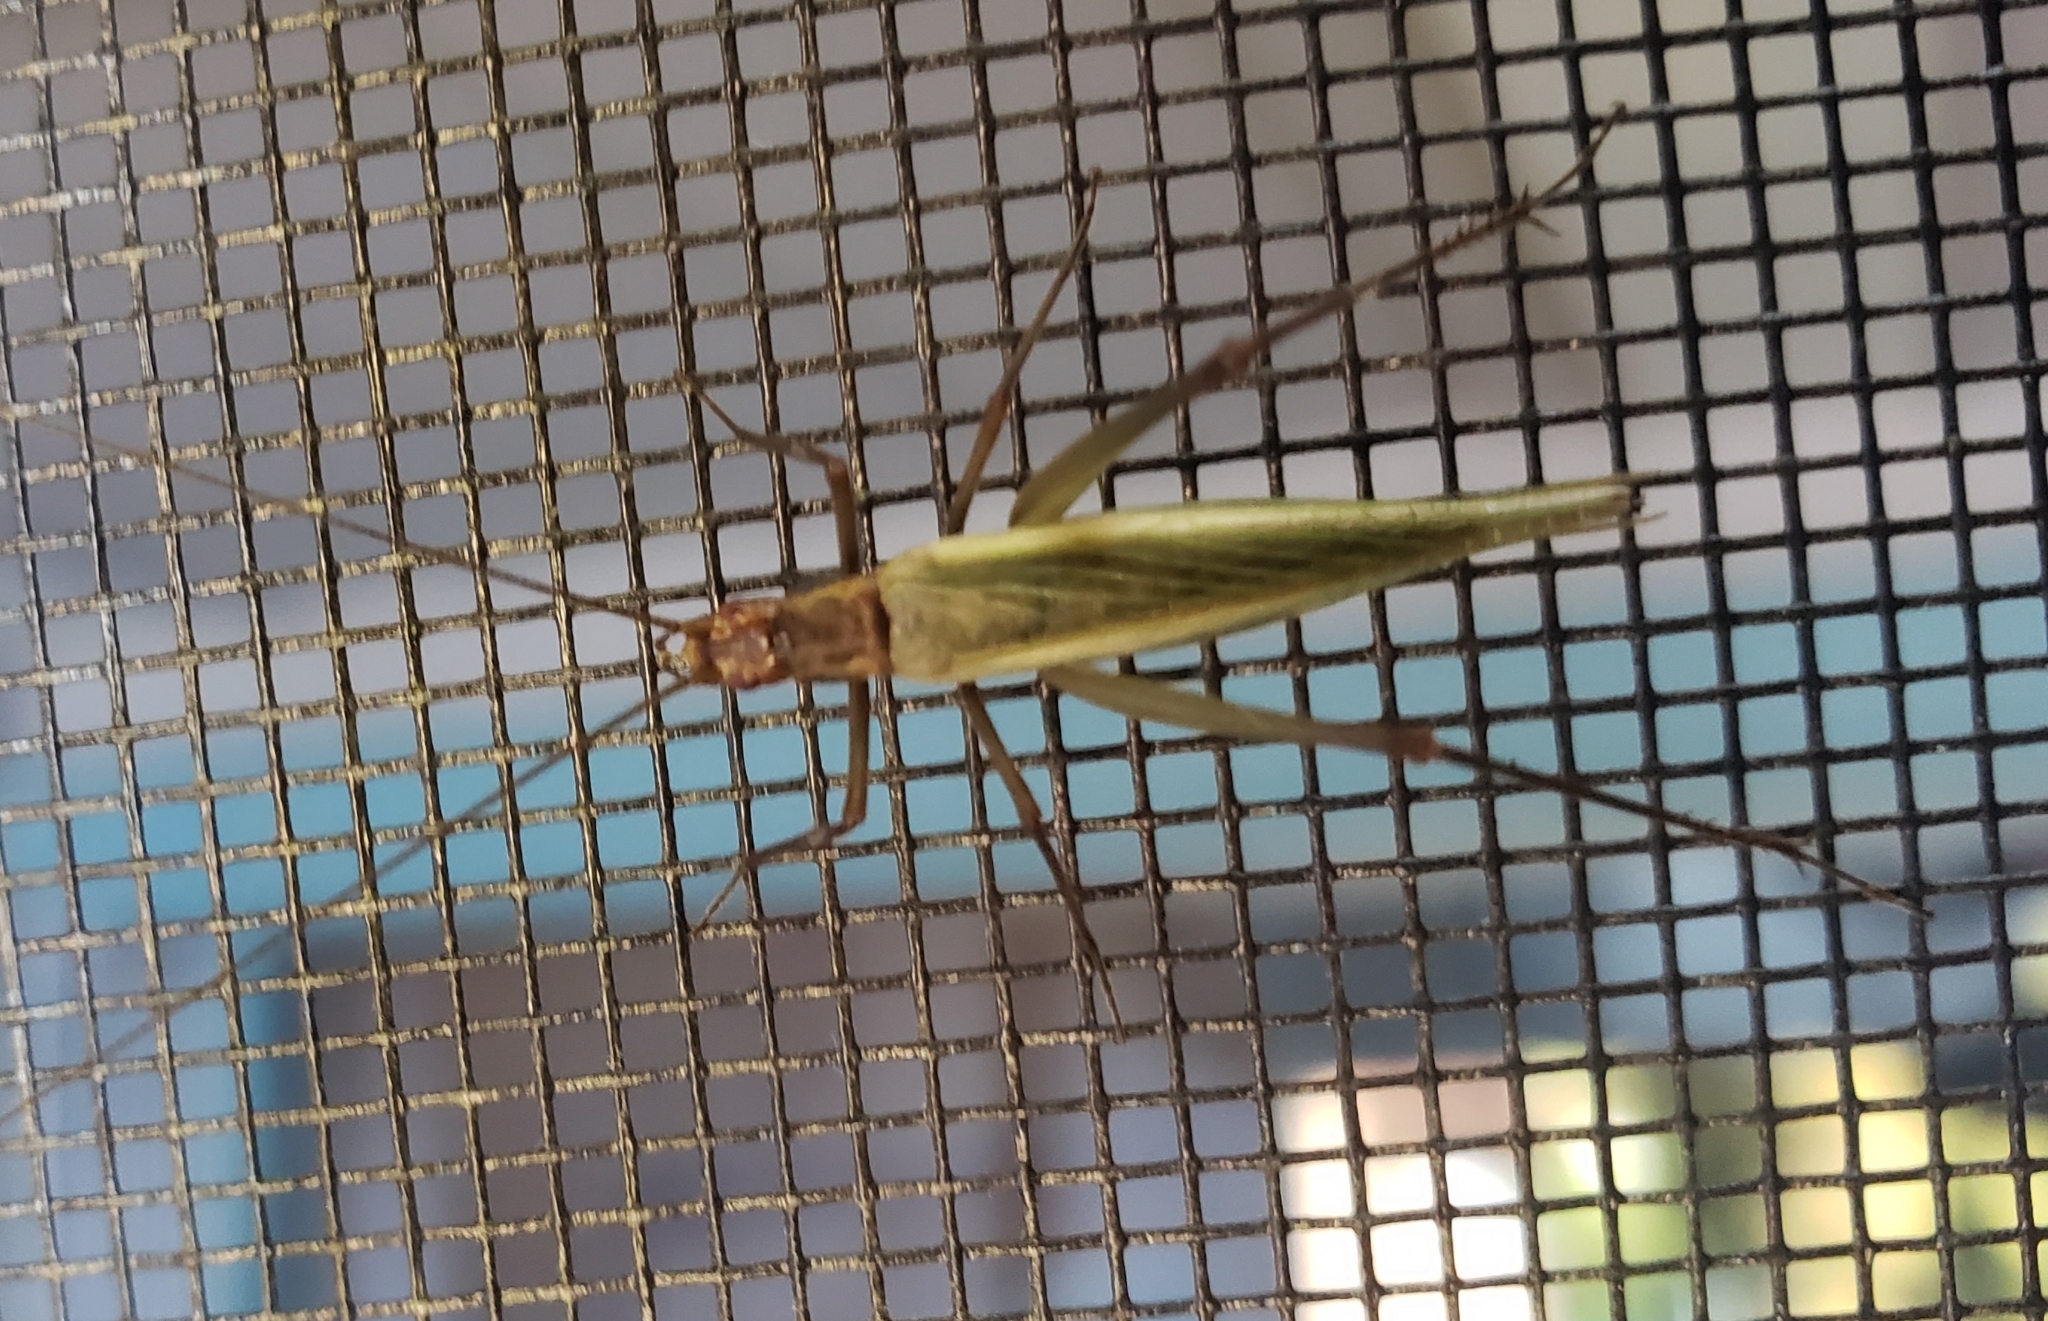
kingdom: Animalia
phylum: Arthropoda
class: Insecta
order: Orthoptera
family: Gryllidae
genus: Oecanthus
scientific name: Oecanthus pini
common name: Pine tree cricket
